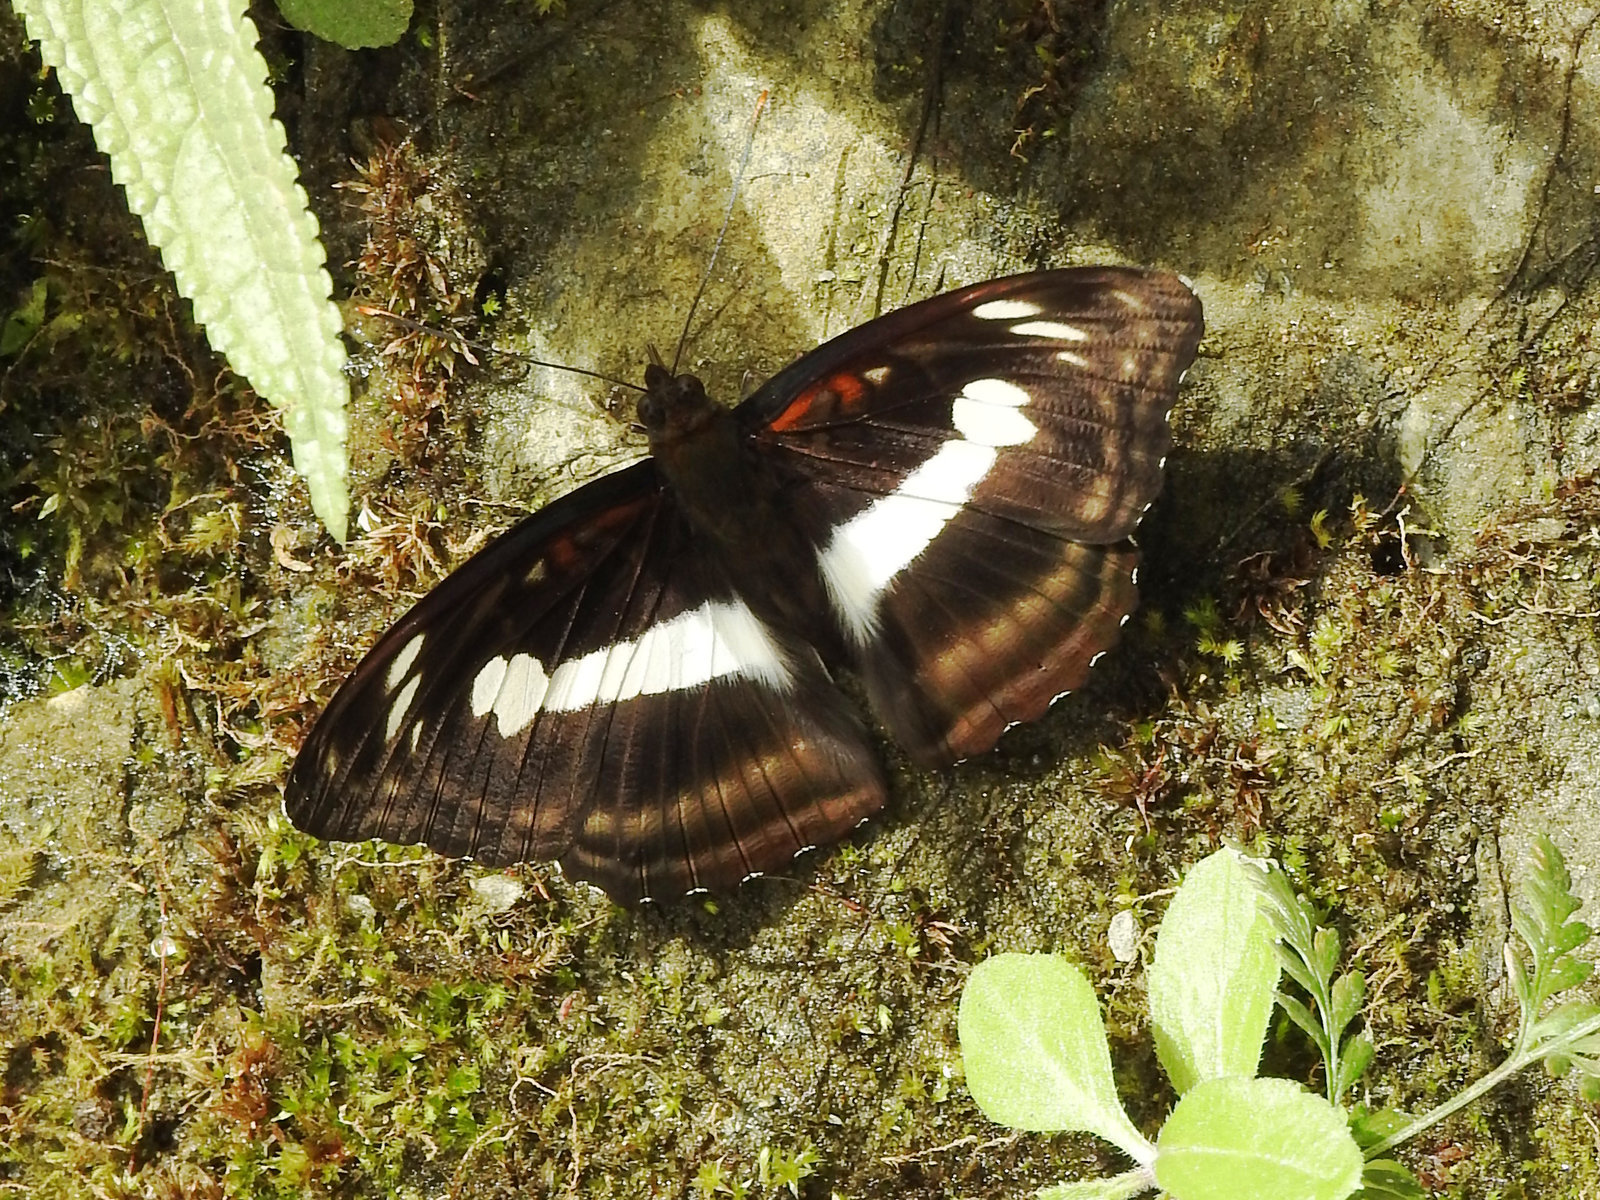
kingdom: Animalia
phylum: Arthropoda
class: Insecta
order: Lepidoptera
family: Nymphalidae
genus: Parathyma
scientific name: Parathyma selenophora
